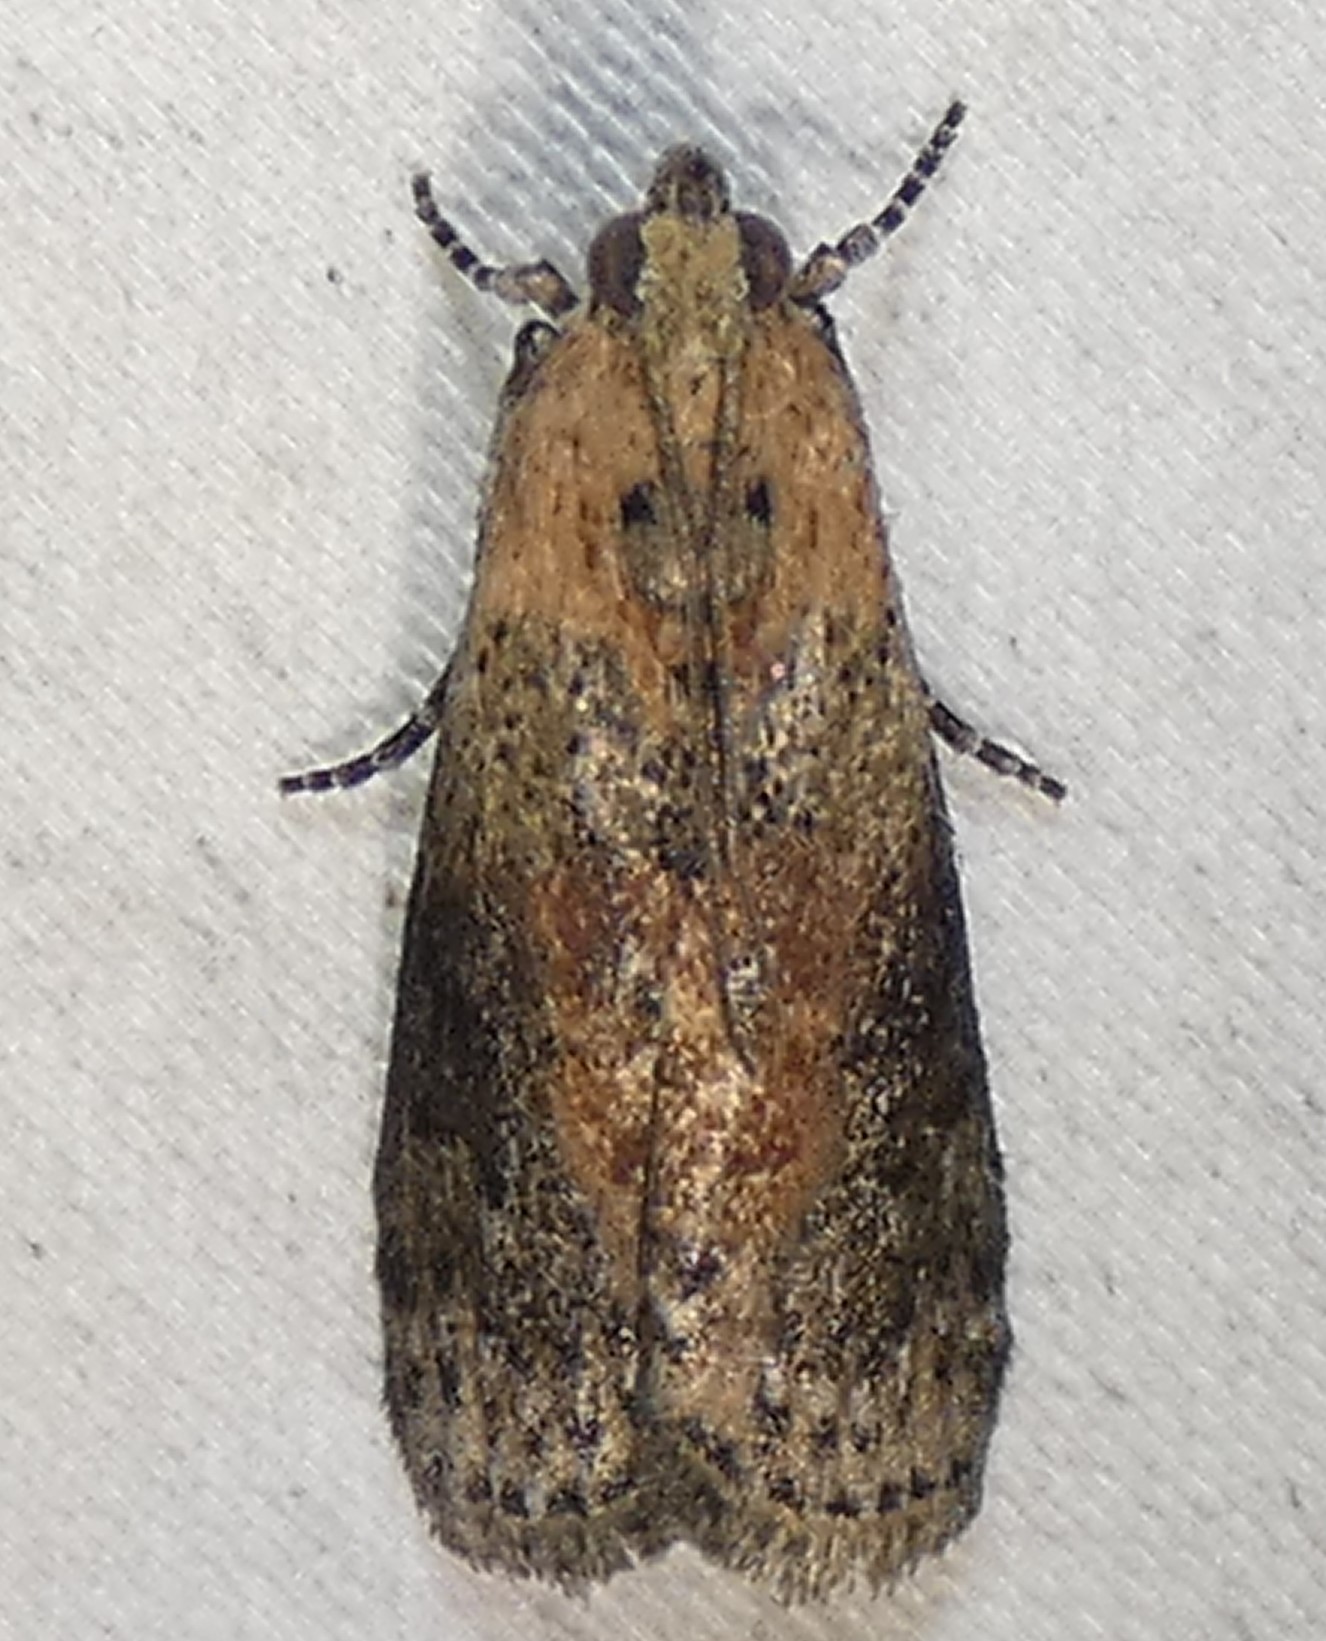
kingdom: Animalia
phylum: Arthropoda
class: Insecta
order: Lepidoptera
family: Pyralidae
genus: Sciota
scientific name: Sciota celtidella
